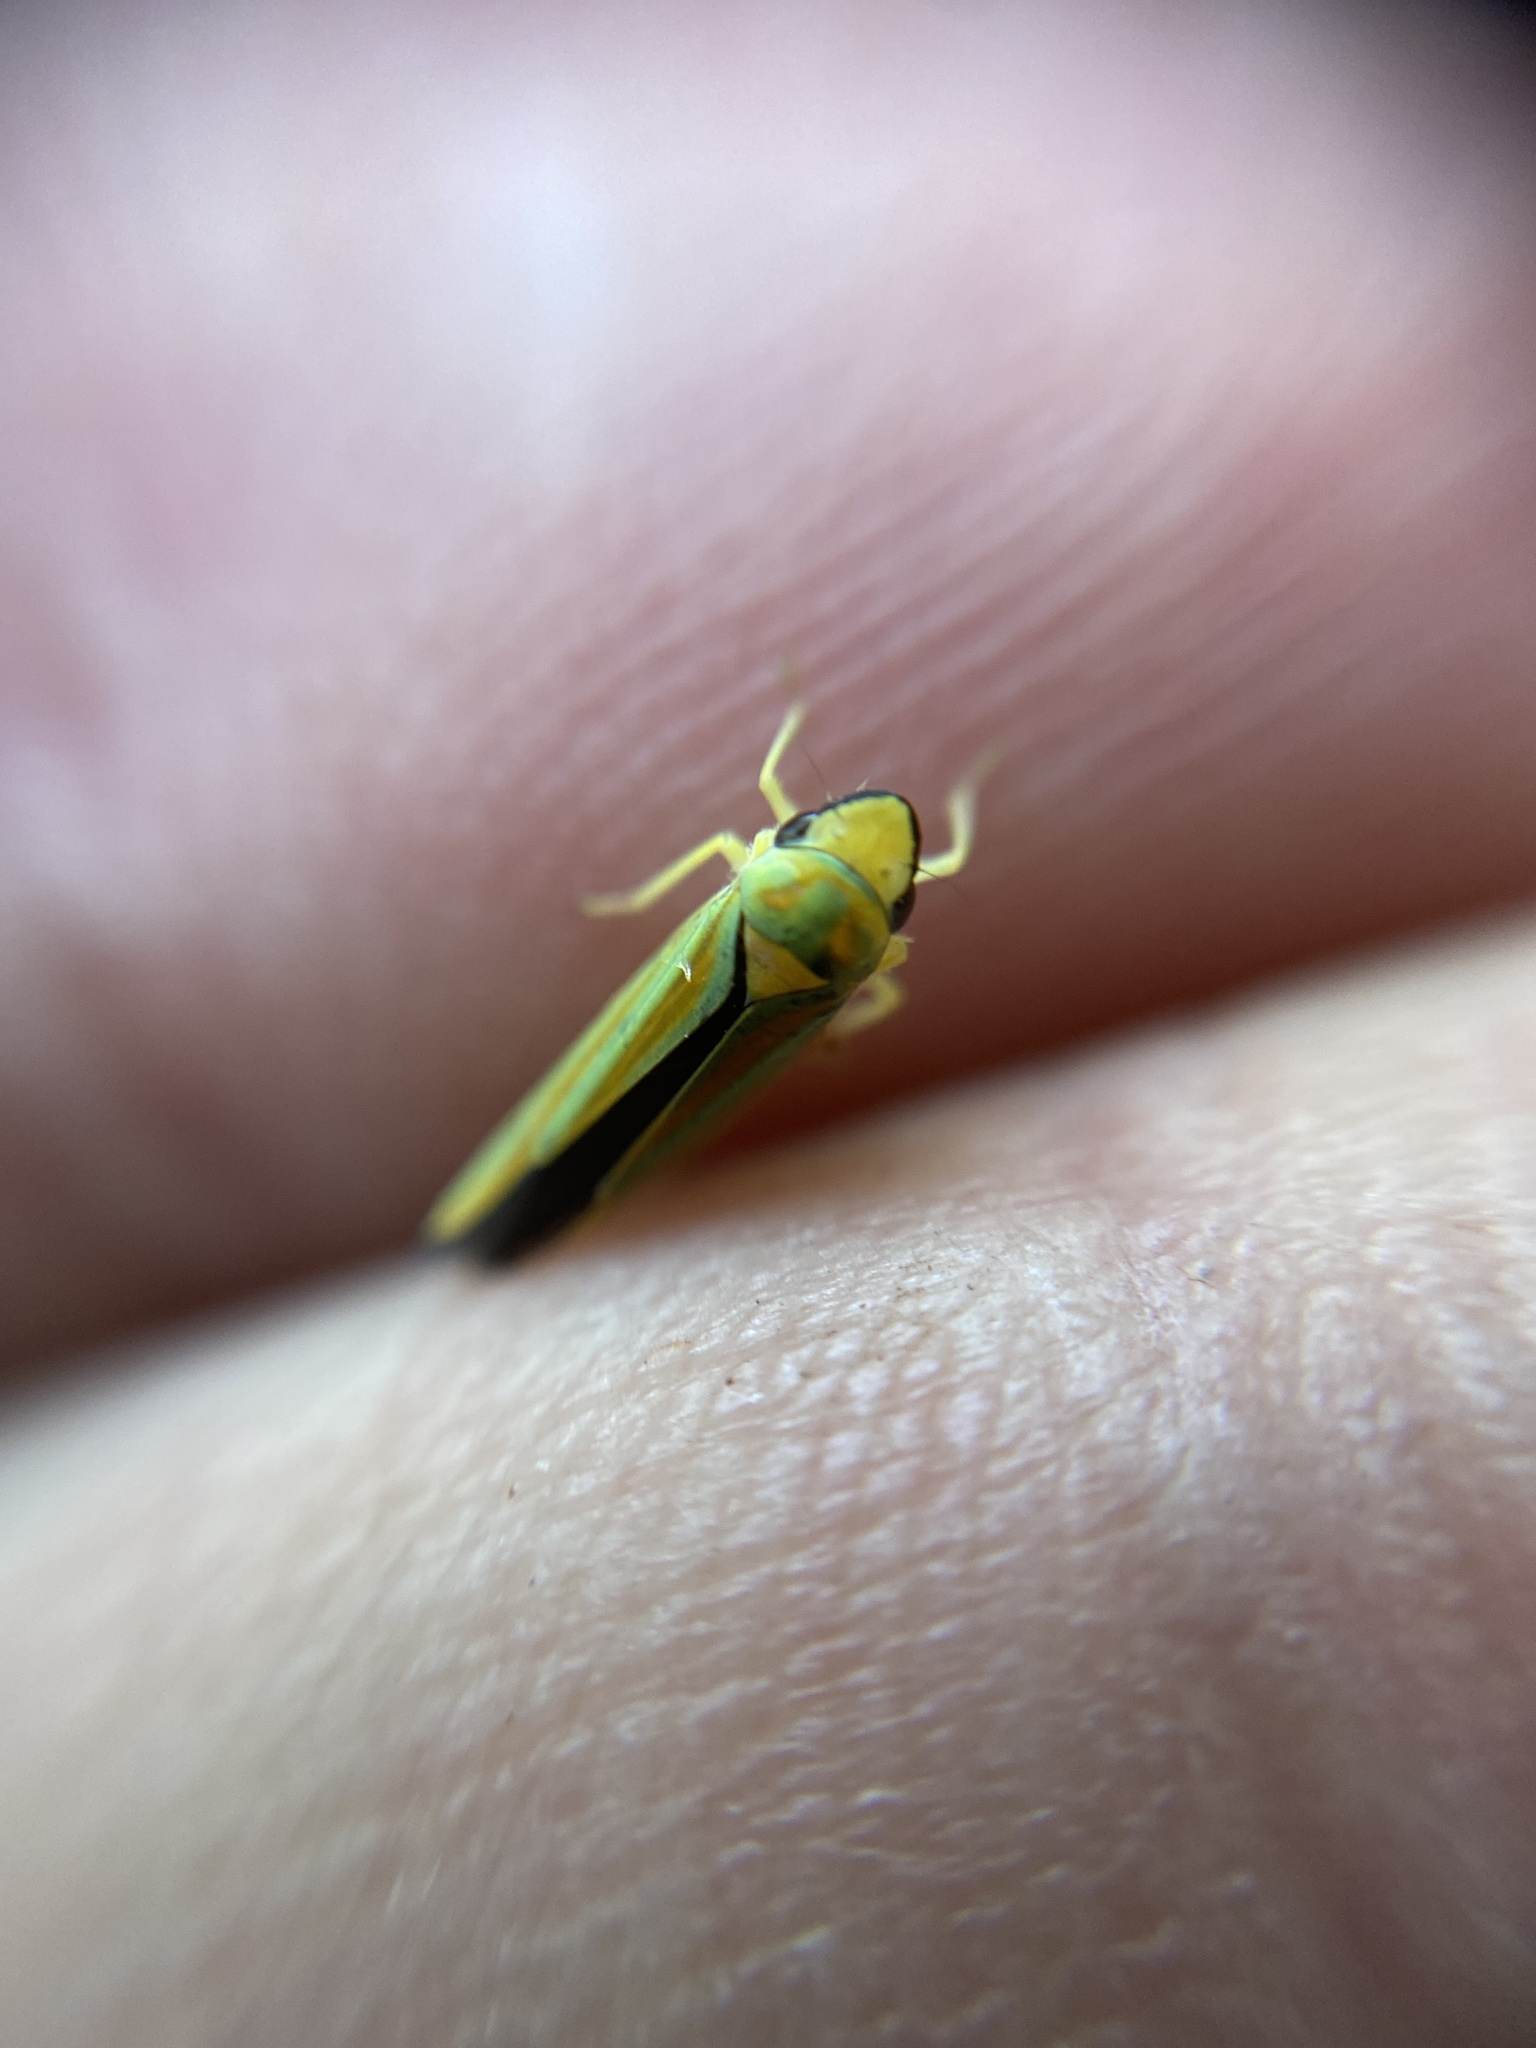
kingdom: Animalia
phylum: Arthropoda
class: Insecta
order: Hemiptera
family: Cicadellidae
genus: Graphocephala
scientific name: Graphocephala fennahi
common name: Rhododendron leafhopper
